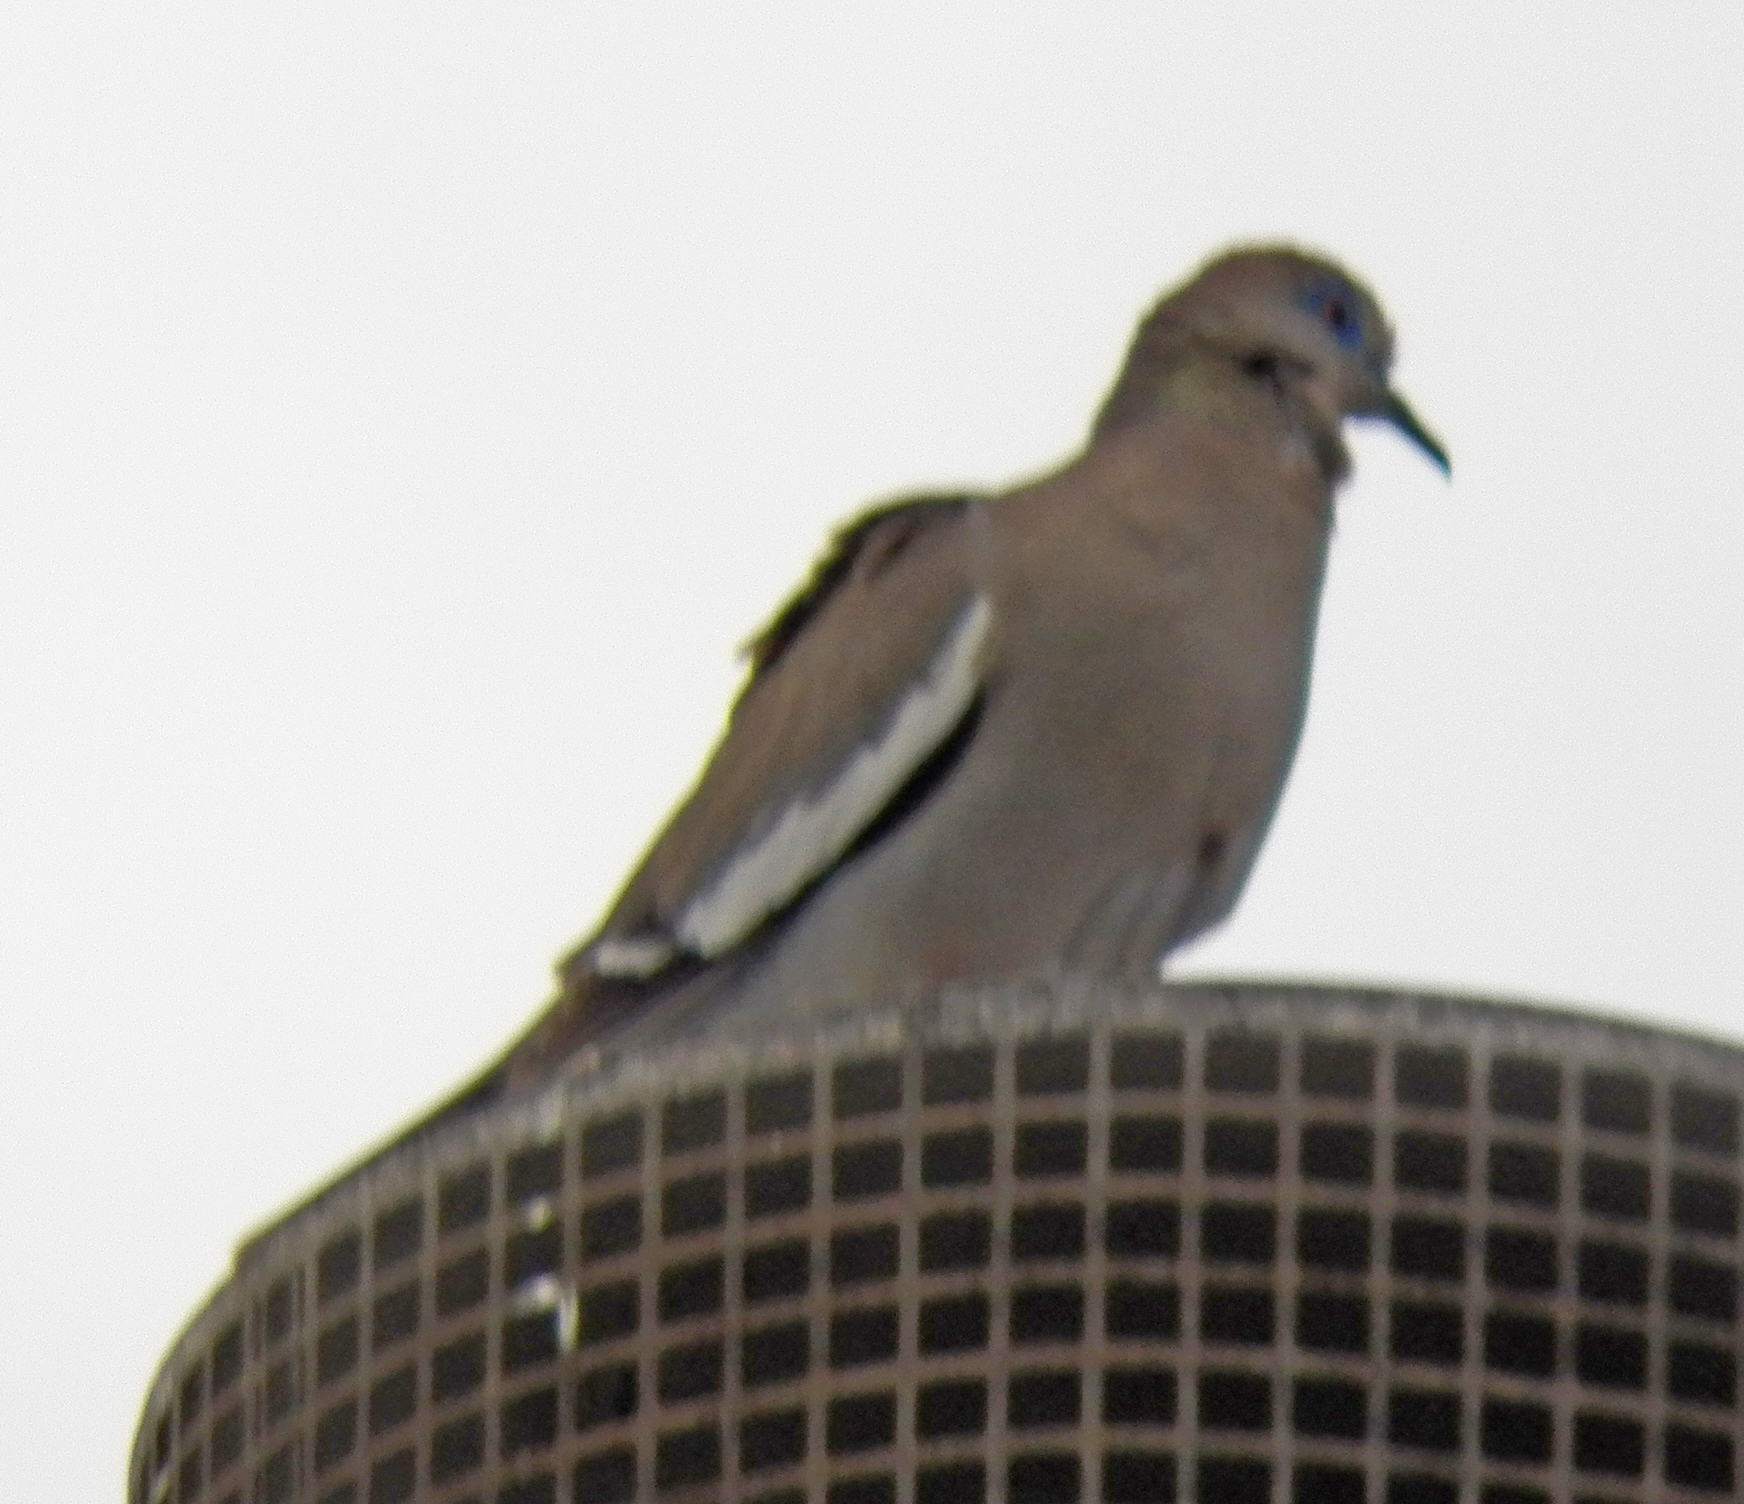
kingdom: Animalia
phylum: Chordata
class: Aves
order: Columbiformes
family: Columbidae
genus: Zenaida
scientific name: Zenaida asiatica
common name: White-winged dove
